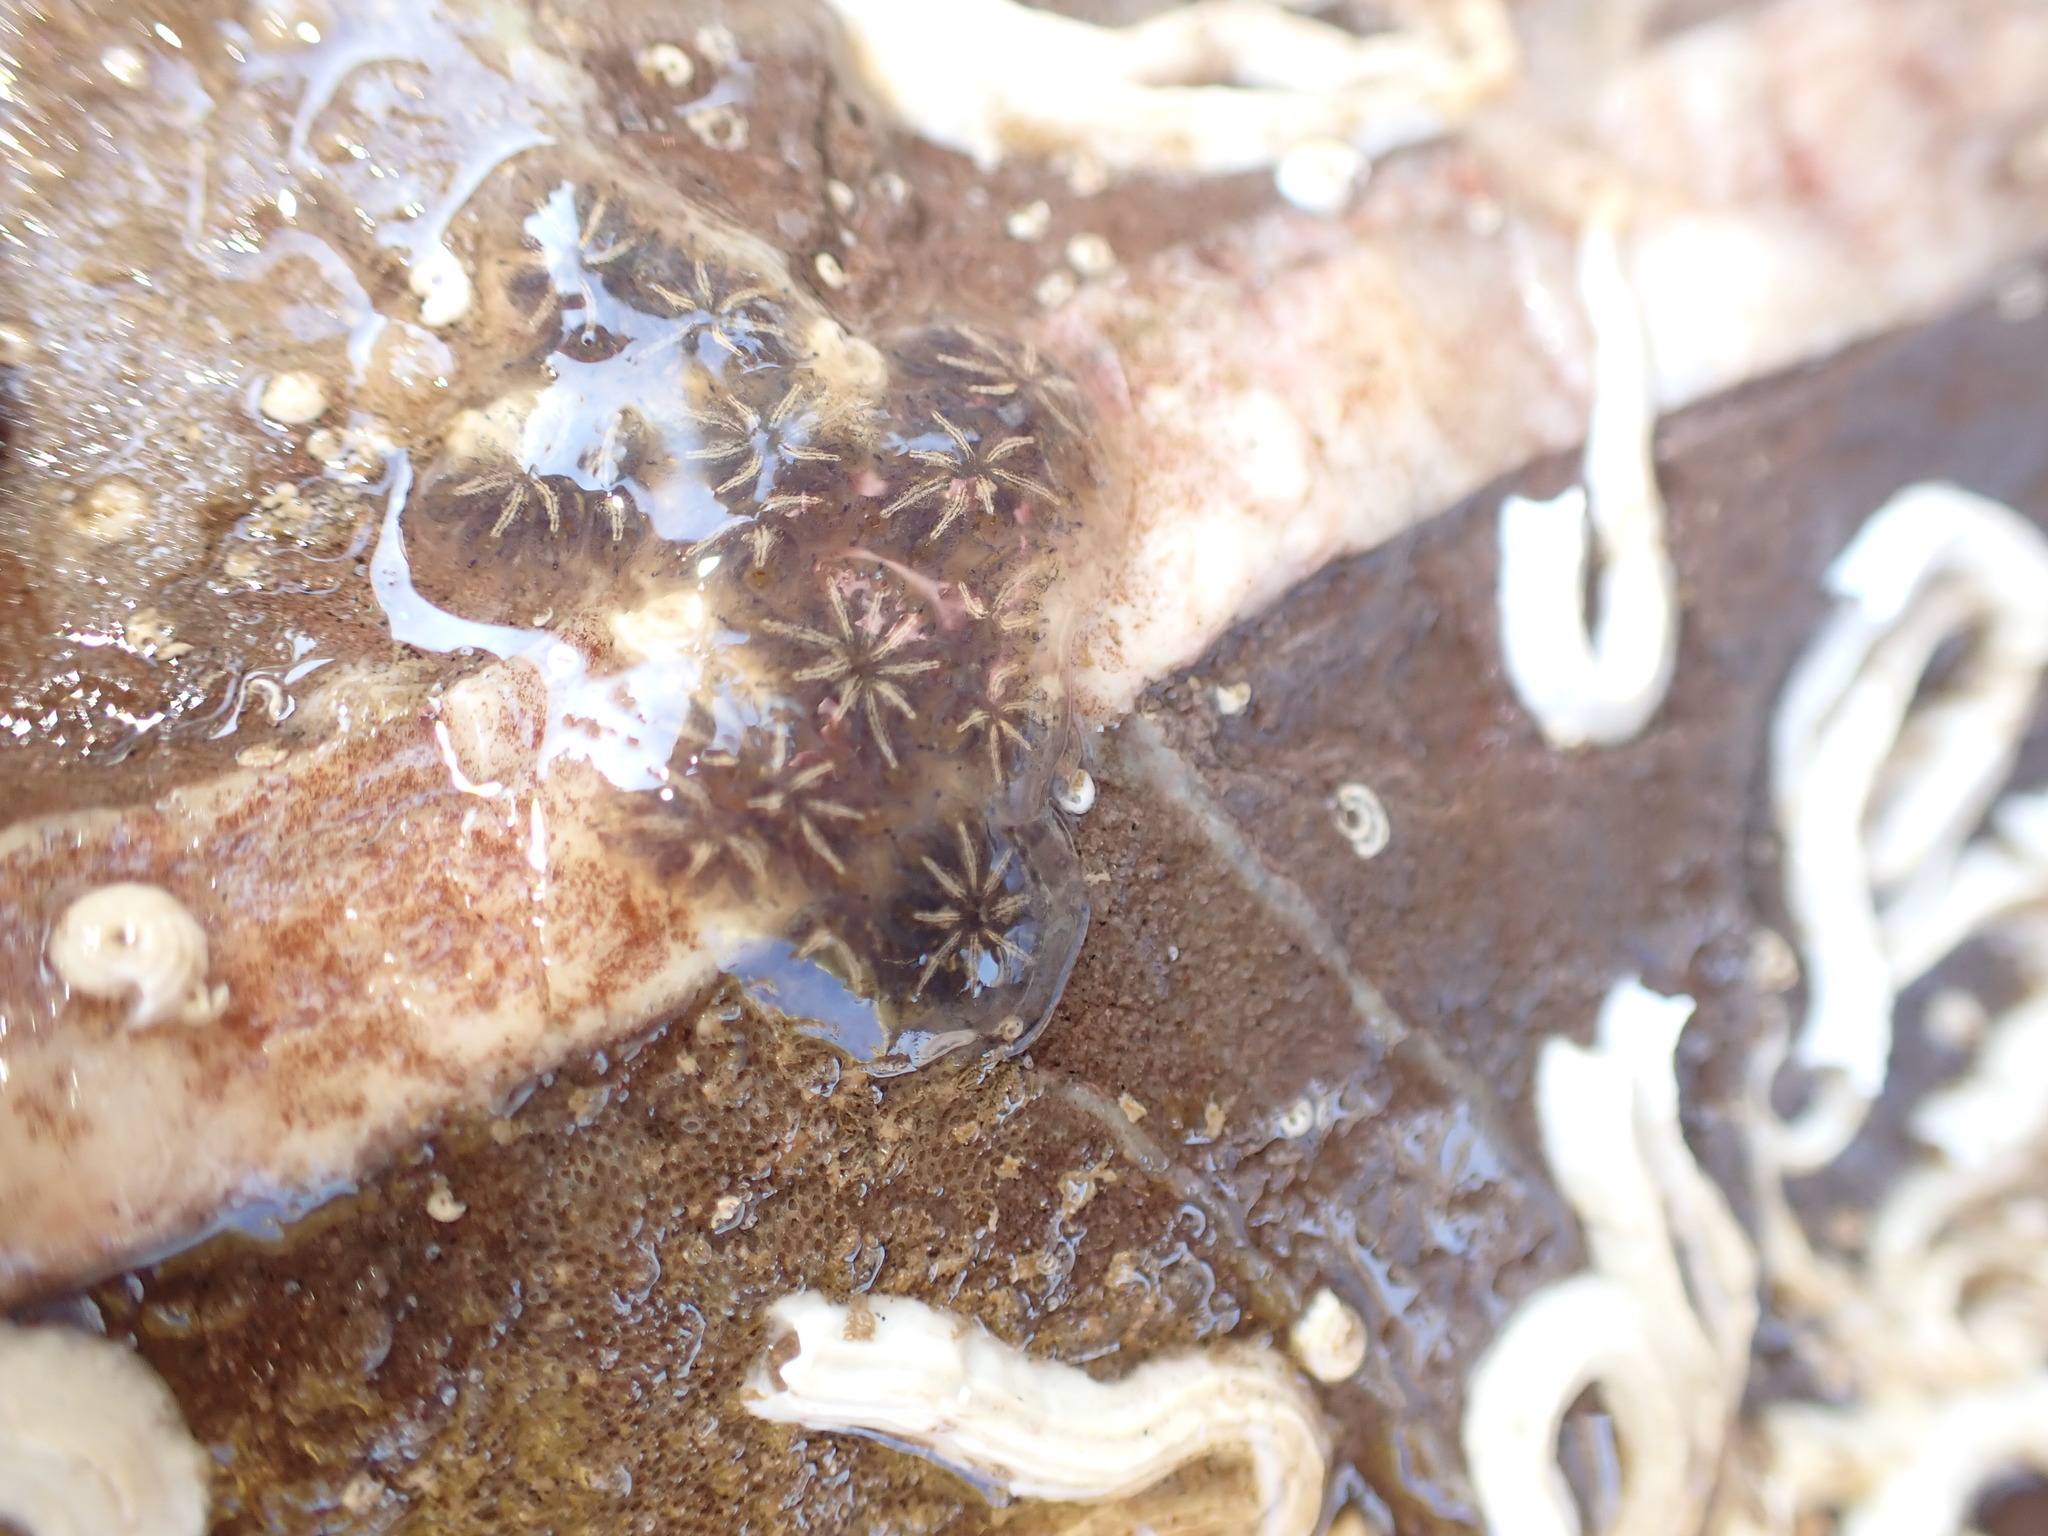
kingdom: Animalia
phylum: Chordata
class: Ascidiacea
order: Stolidobranchia
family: Styelidae
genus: Botryllus
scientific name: Botryllus schlosseri
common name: Golden star tunicate
